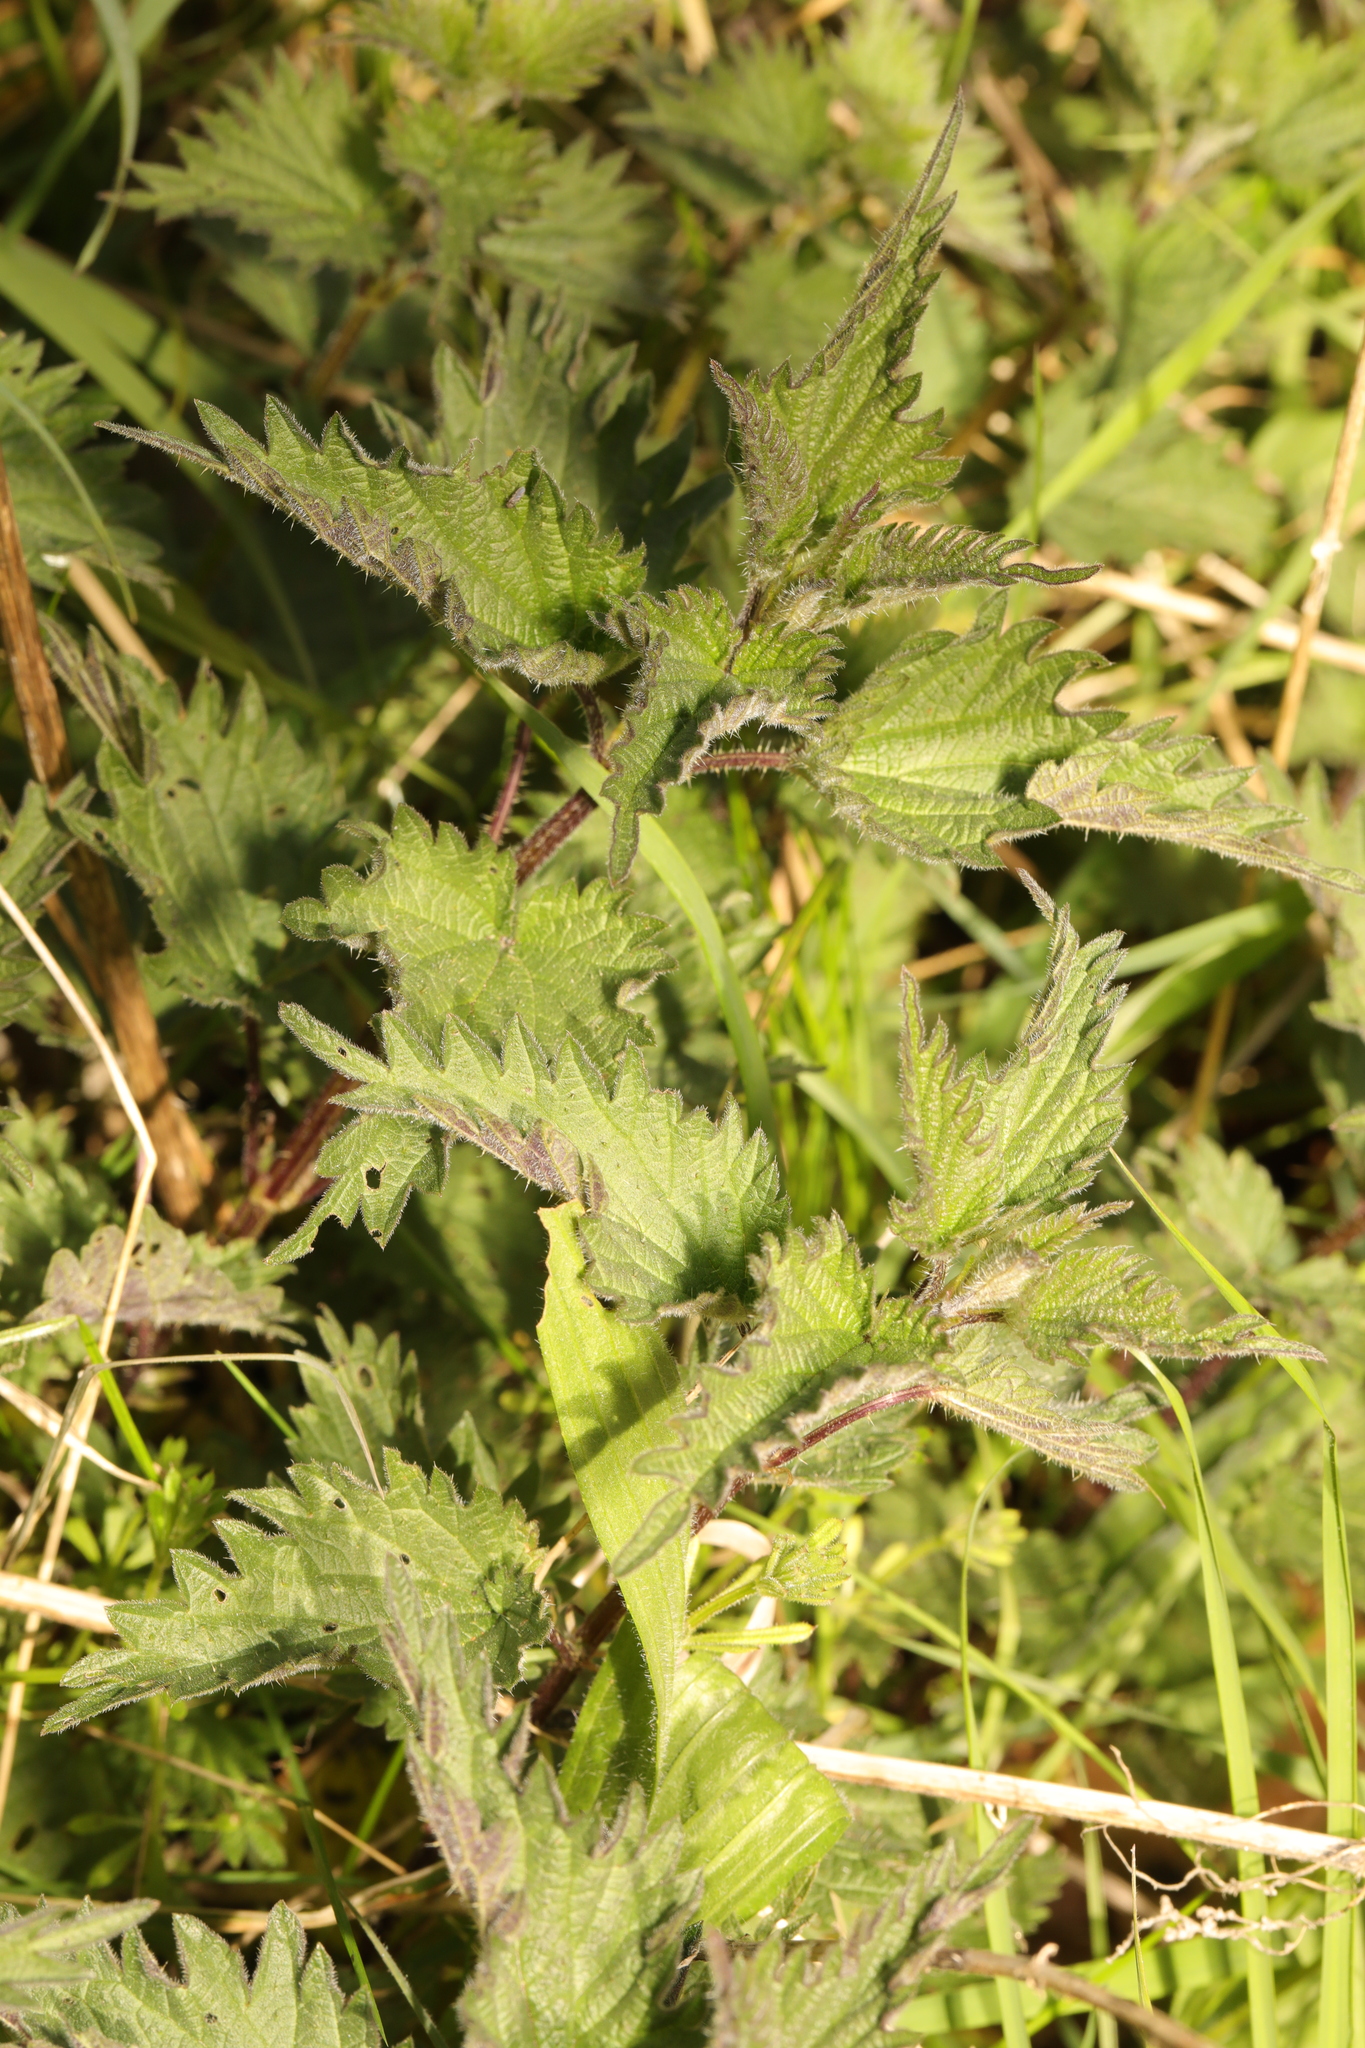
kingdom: Plantae
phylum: Tracheophyta
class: Magnoliopsida
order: Rosales
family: Urticaceae
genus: Urtica
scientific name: Urtica dioica
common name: Common nettle
